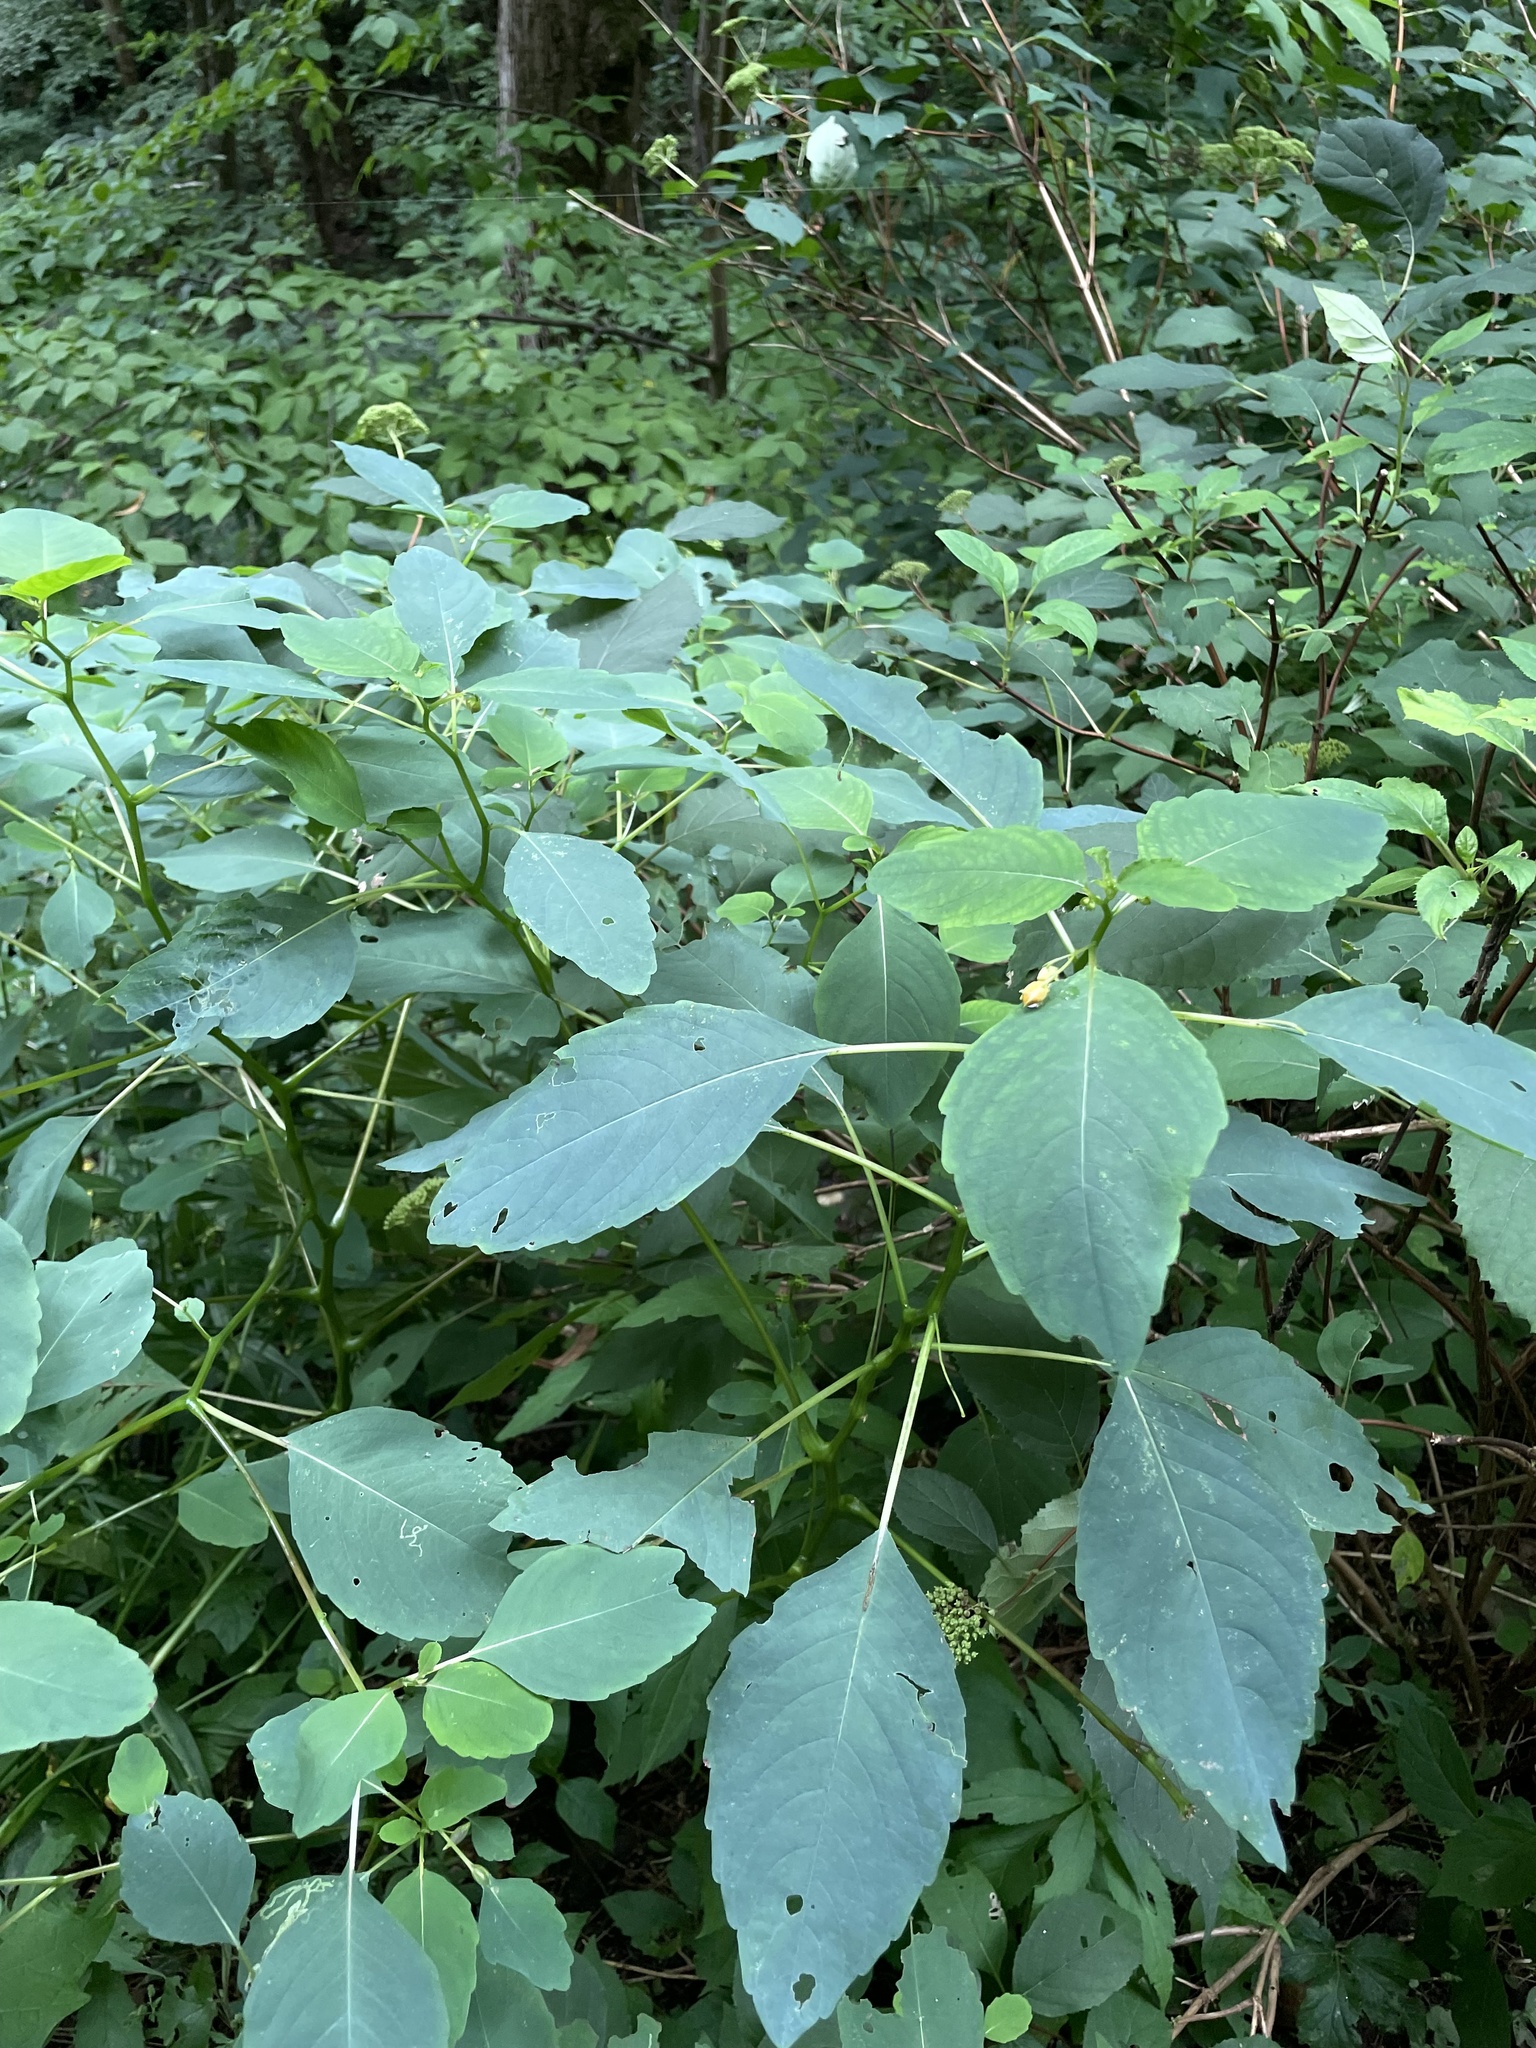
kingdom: Plantae
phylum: Tracheophyta
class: Magnoliopsida
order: Ericales
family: Balsaminaceae
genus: Impatiens
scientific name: Impatiens capensis
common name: Orange balsam
